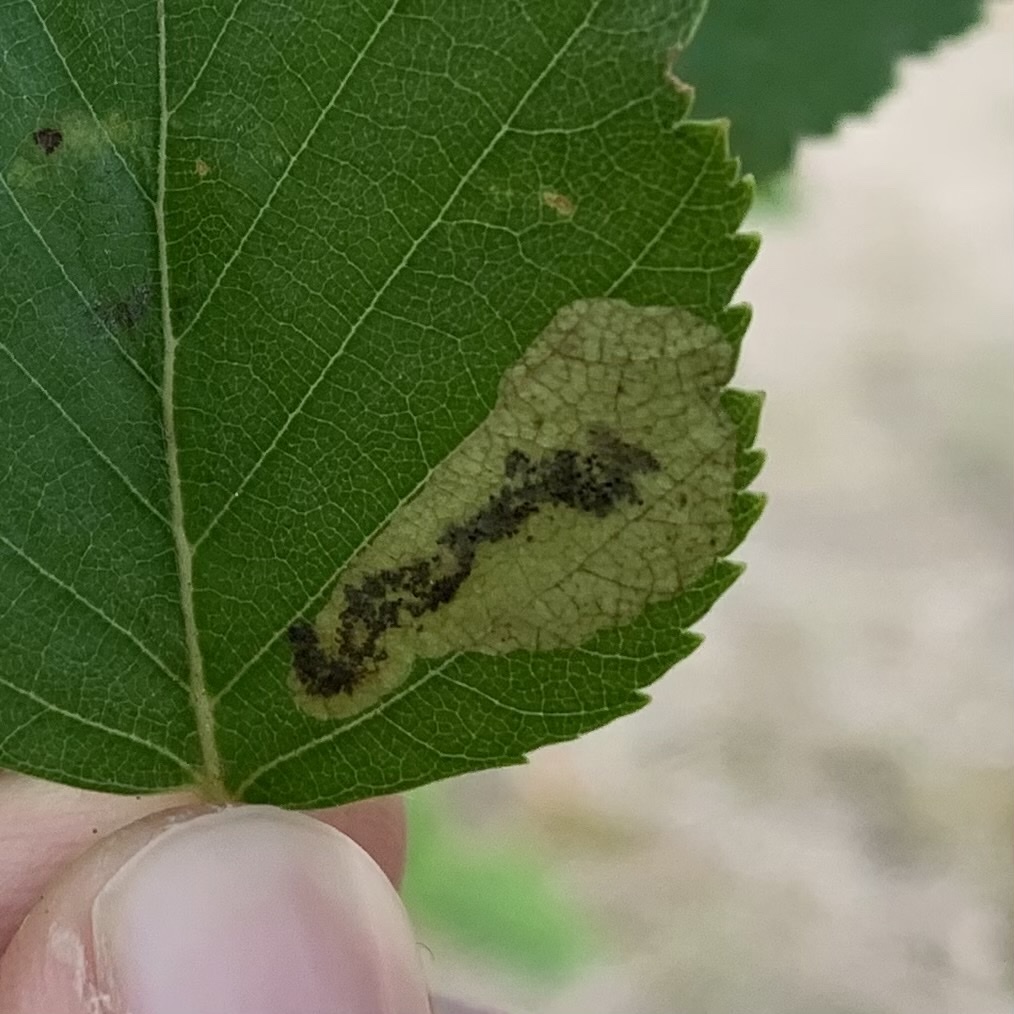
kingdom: Animalia
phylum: Arthropoda
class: Insecta
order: Hymenoptera
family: Tenthredinidae
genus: Profenusa
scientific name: Profenusa thomsoni
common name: Amber-marked birch leafminer
